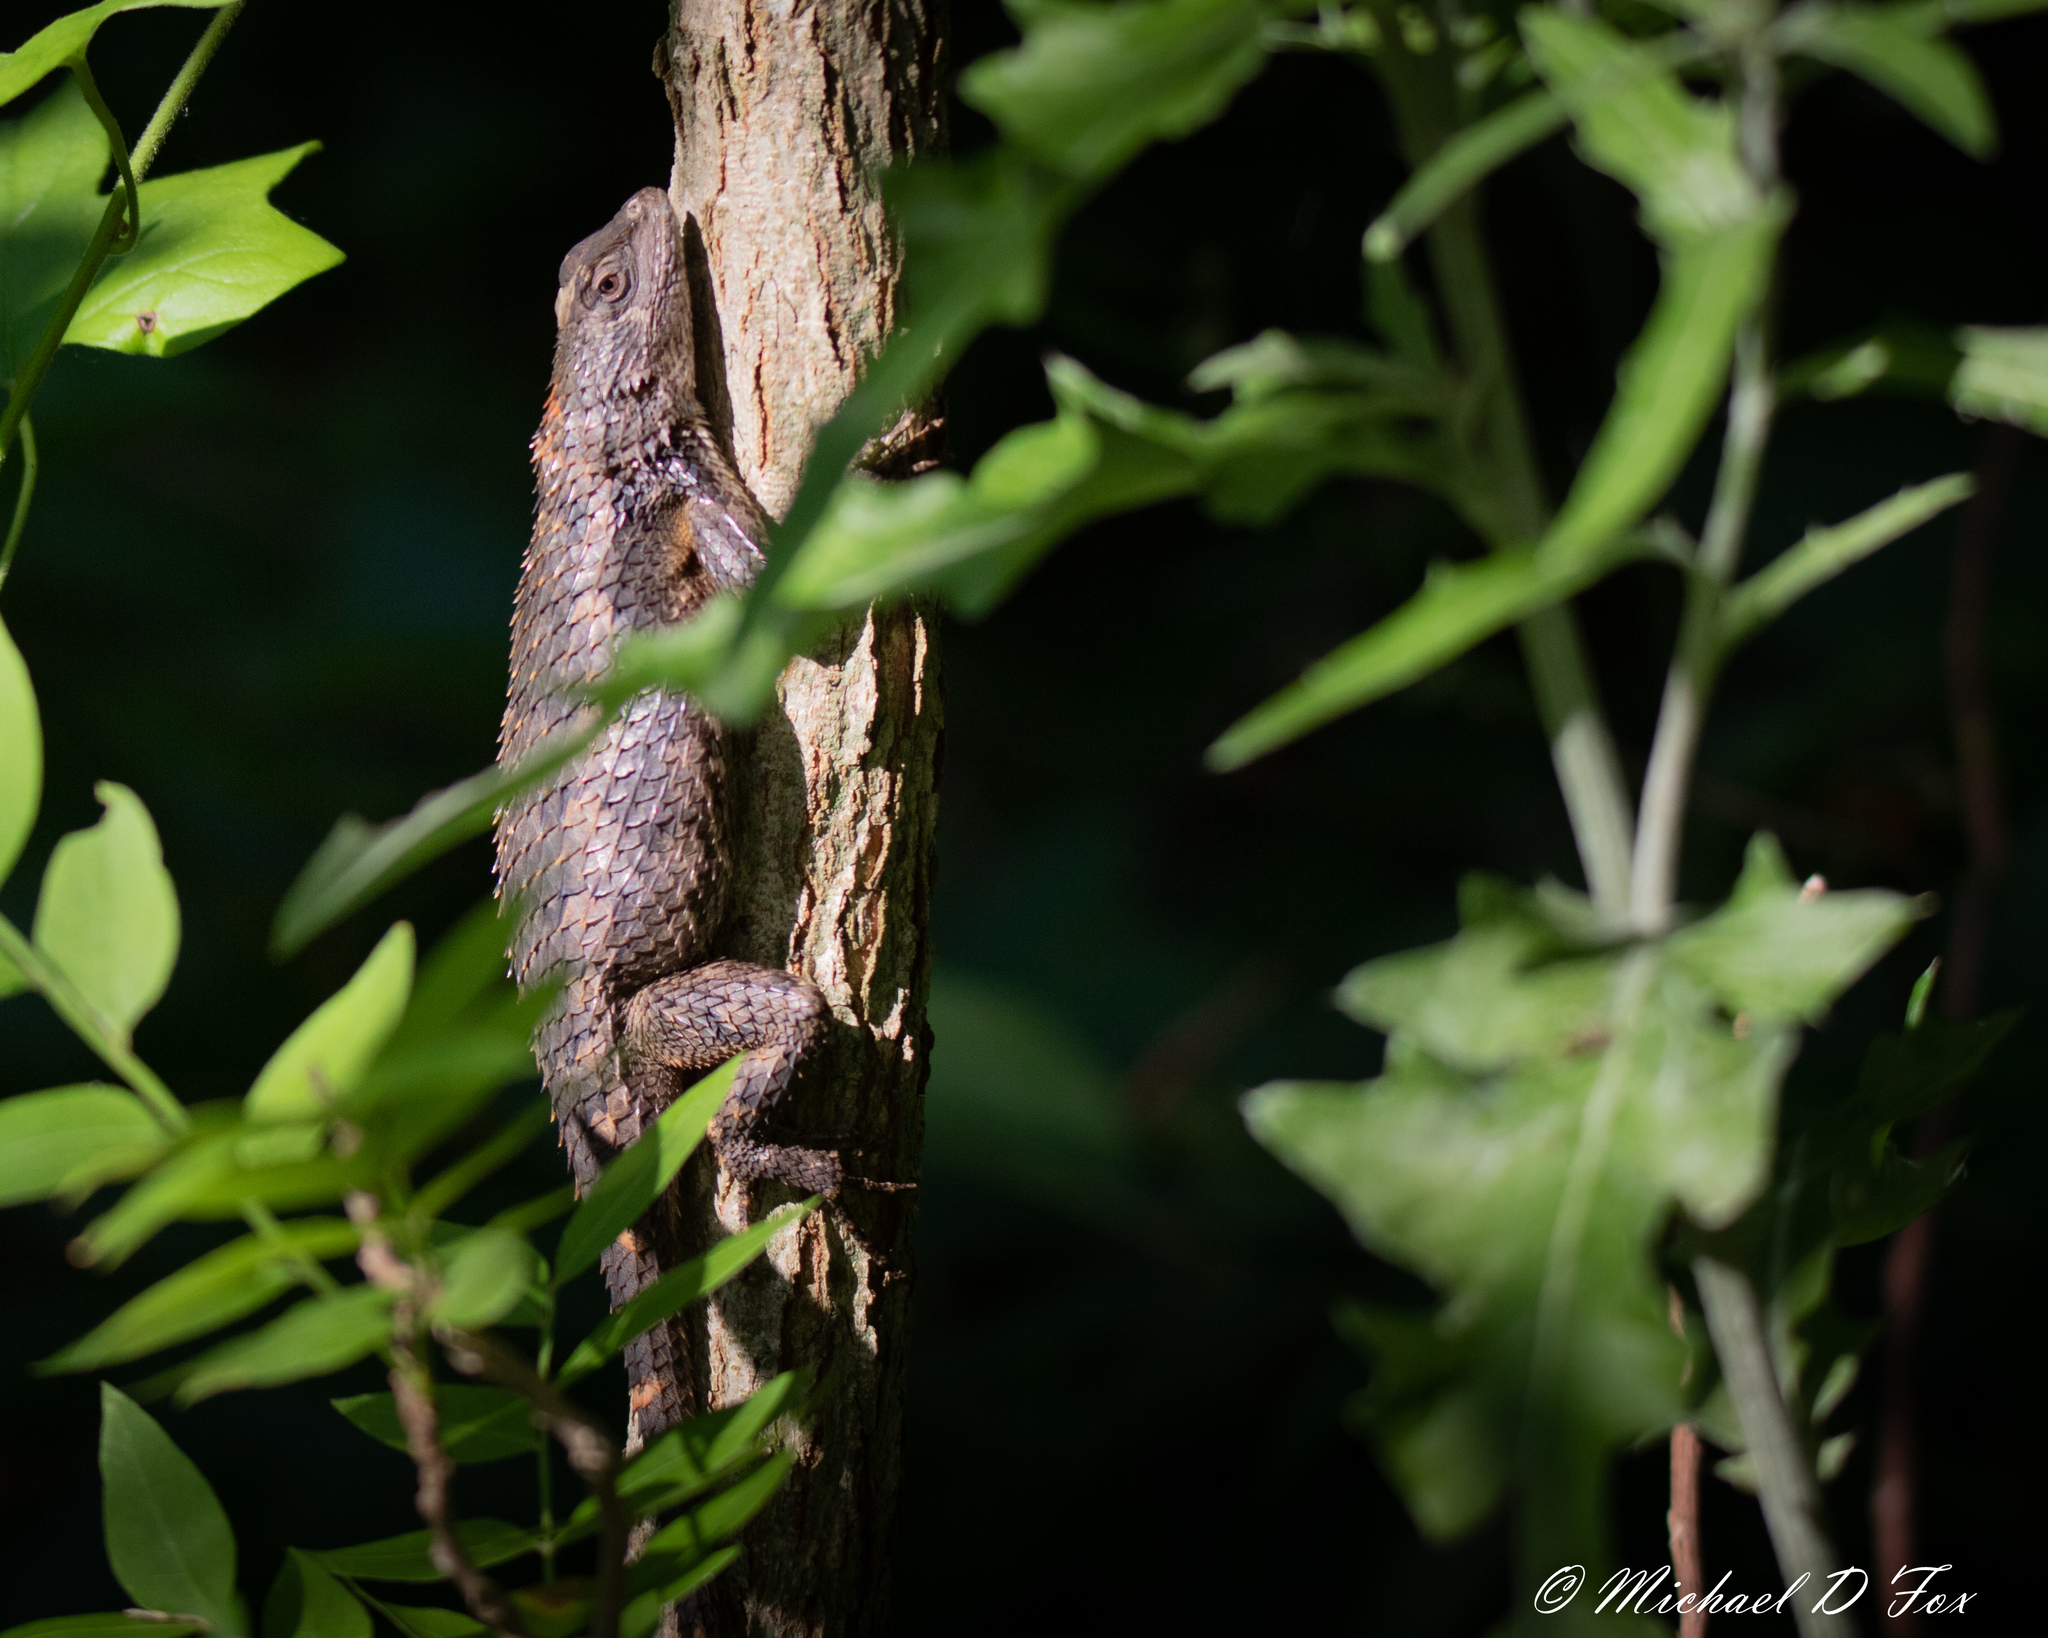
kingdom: Animalia
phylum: Chordata
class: Squamata
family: Phrynosomatidae
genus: Sceloporus
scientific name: Sceloporus olivaceus
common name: Texas spiny lizard
